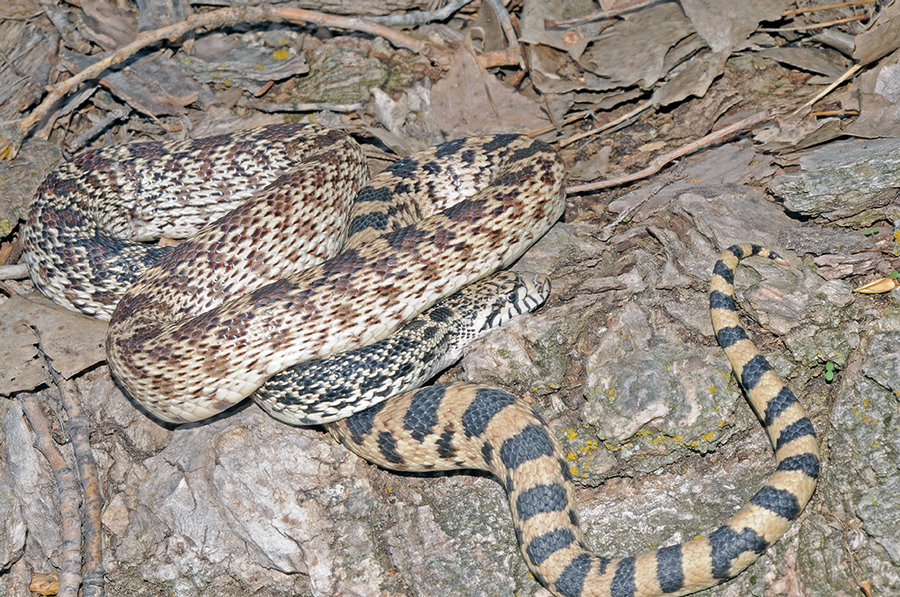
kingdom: Animalia
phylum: Chordata
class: Squamata
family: Colubridae
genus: Pituophis
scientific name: Pituophis catenifer
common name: Gopher snake
